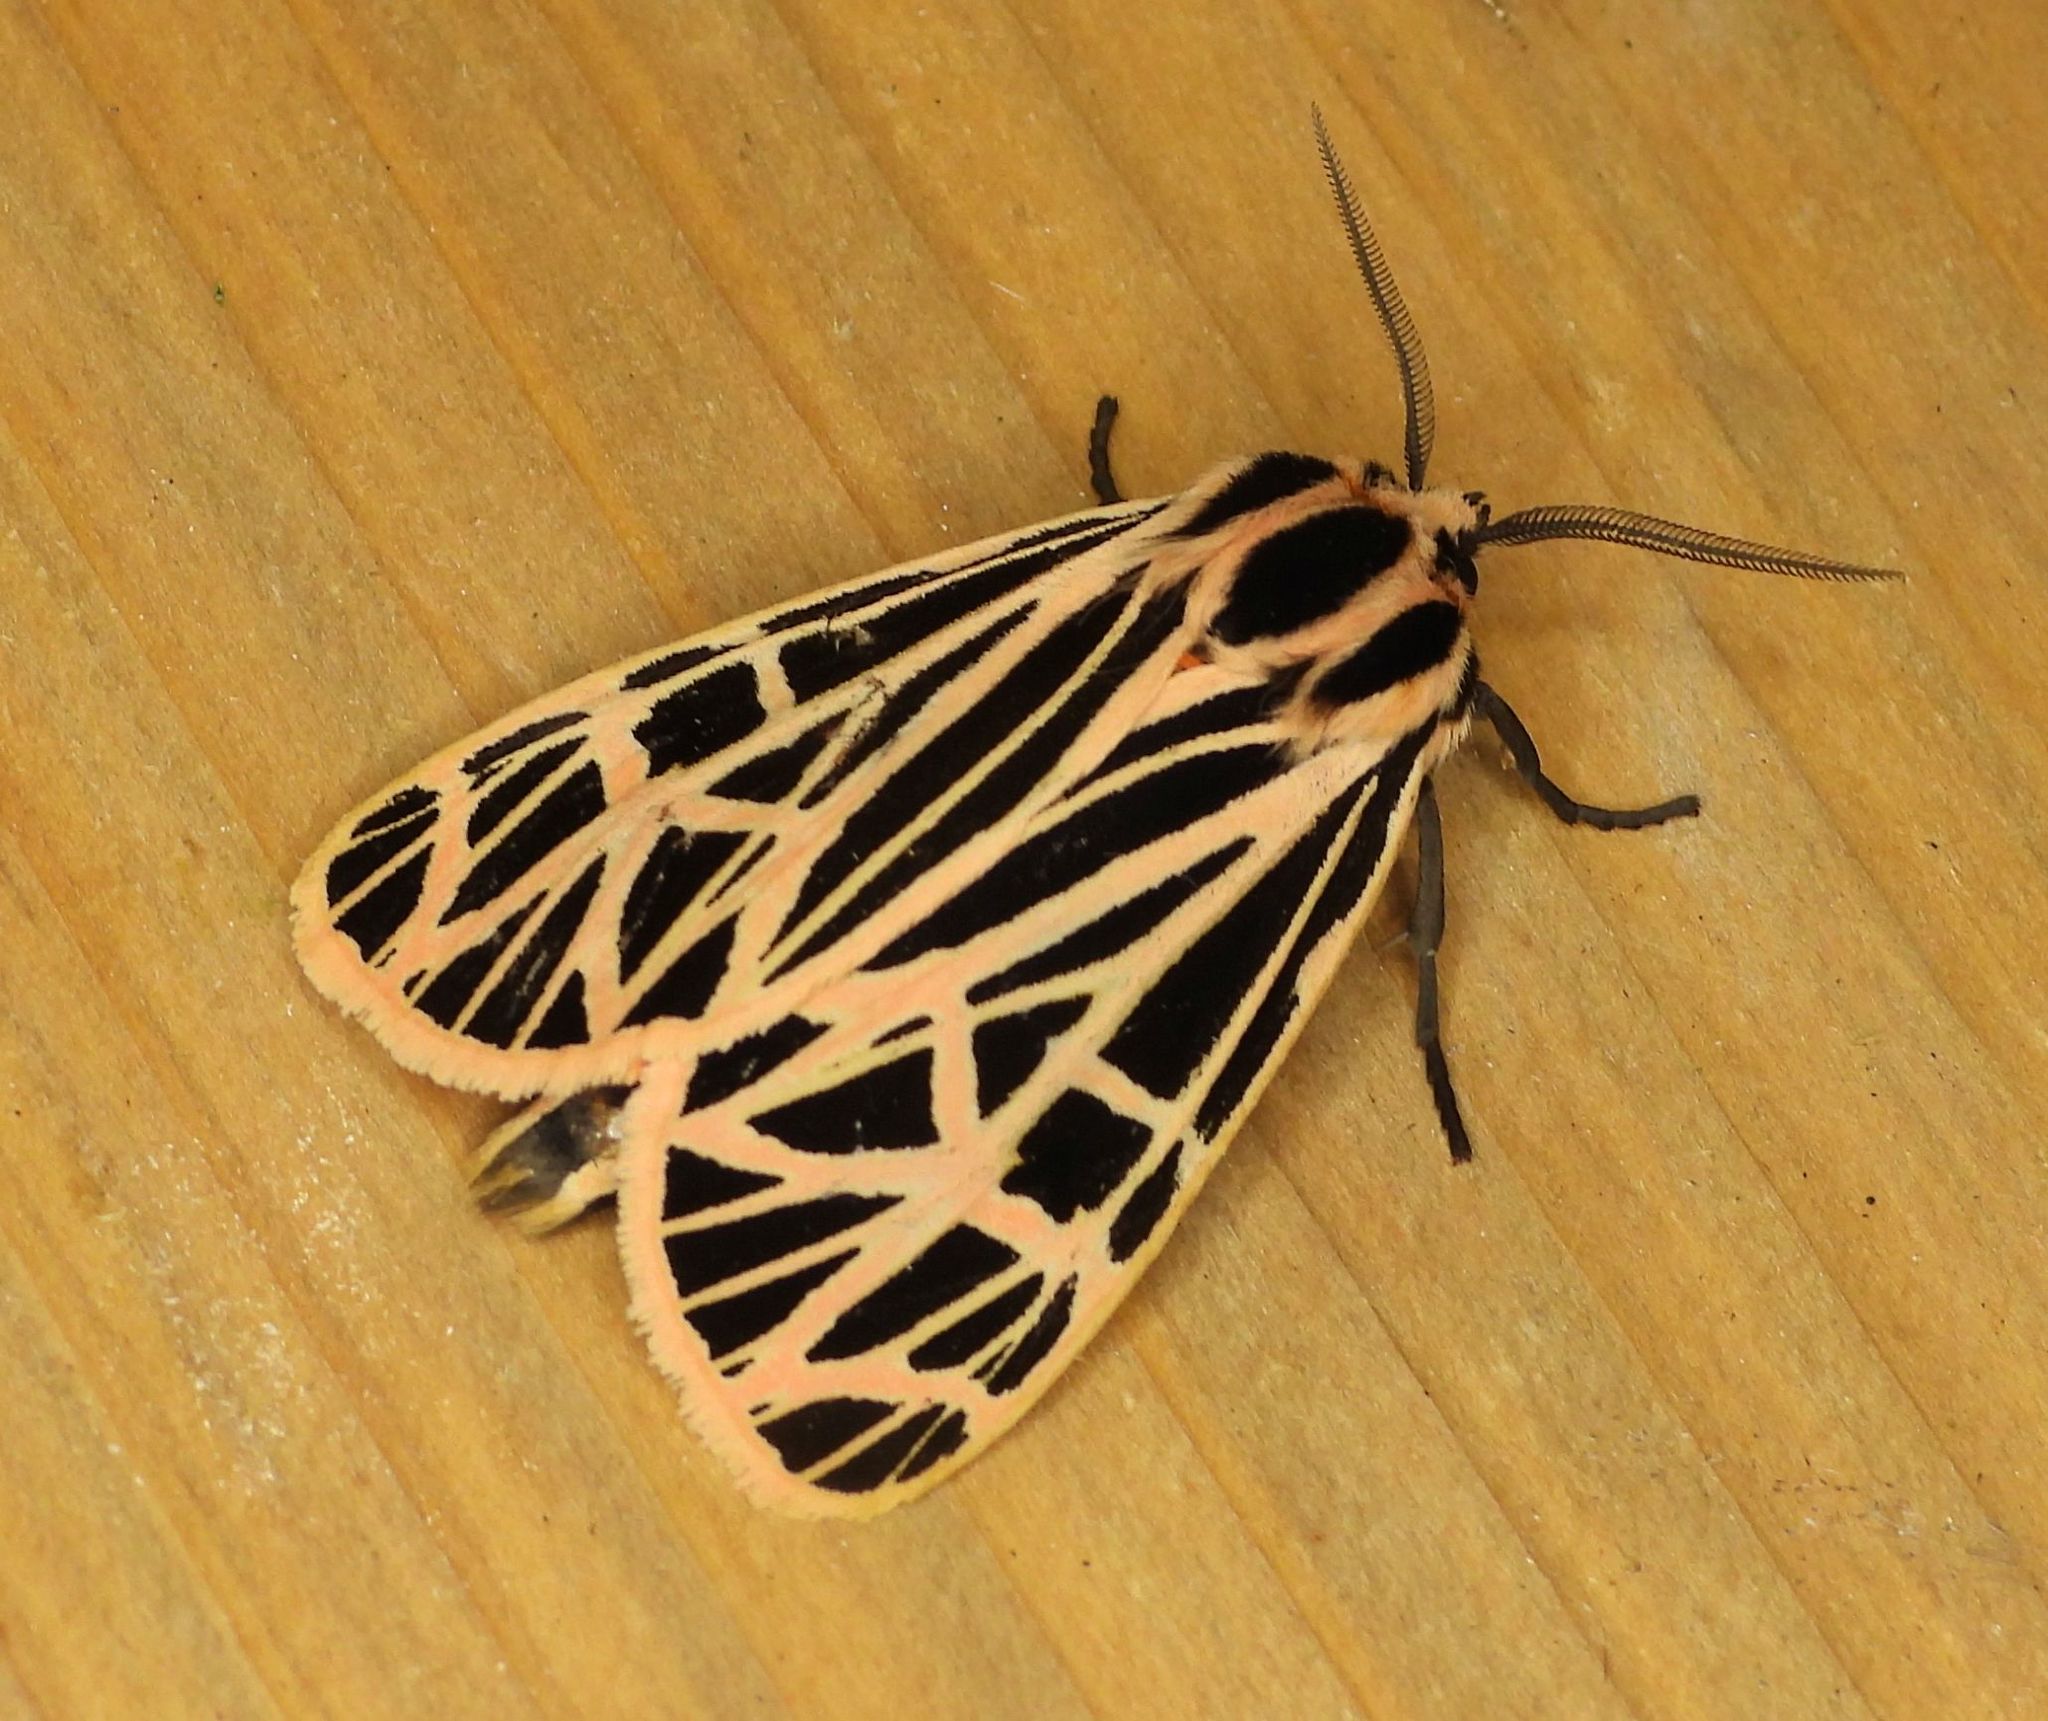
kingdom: Animalia
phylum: Arthropoda
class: Insecta
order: Lepidoptera
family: Erebidae
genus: Grammia
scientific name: Grammia virgo
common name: Virgin tiger moth
